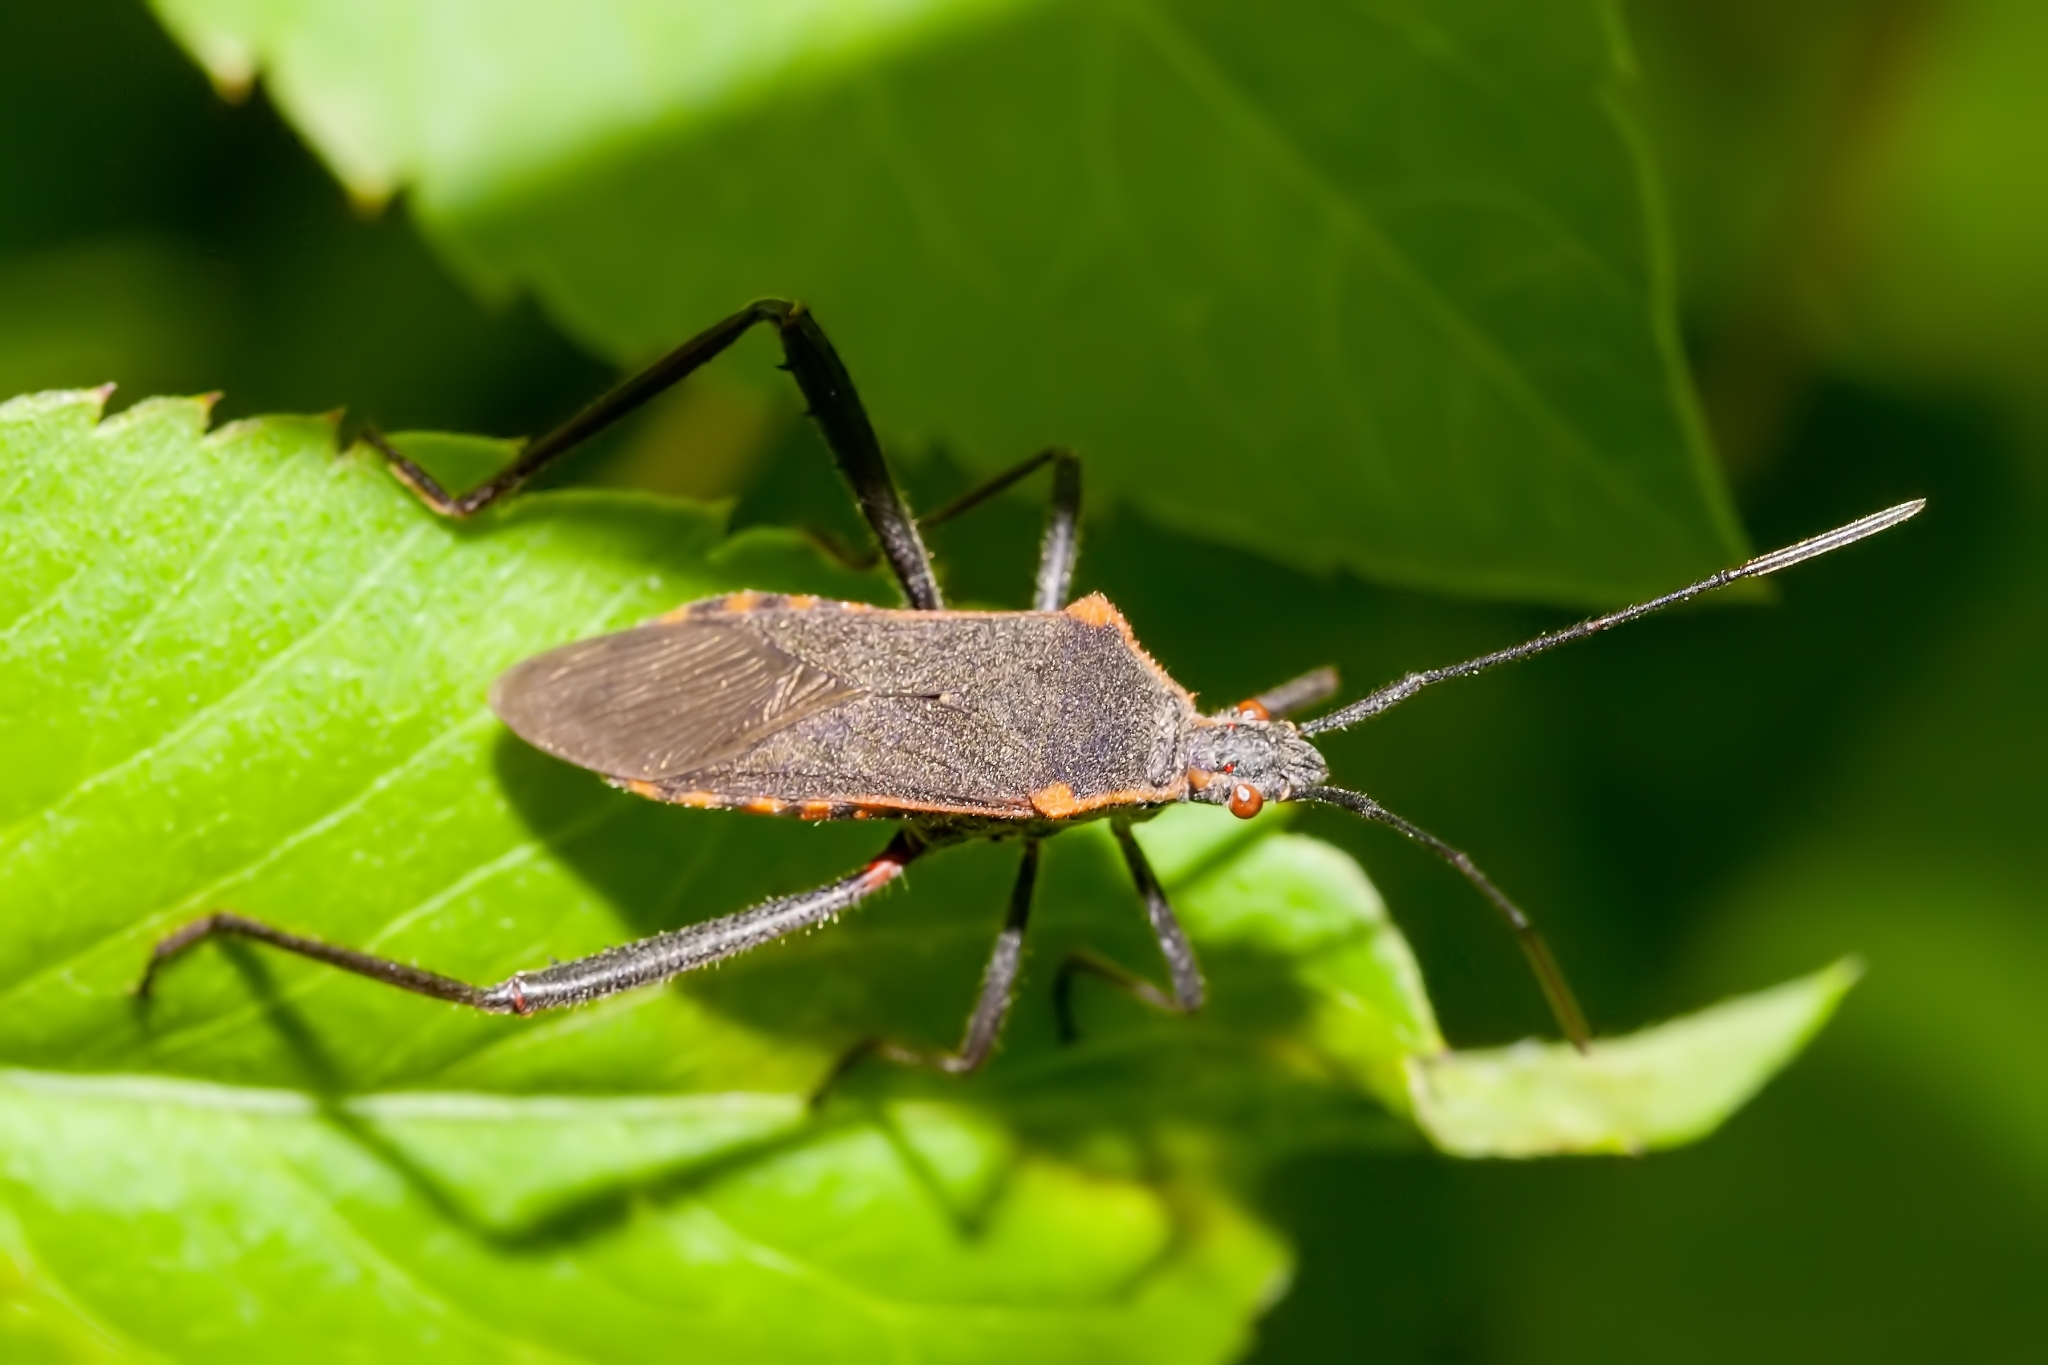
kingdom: Animalia
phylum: Arthropoda
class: Insecta
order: Hemiptera
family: Coreidae
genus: Phthiacnemia
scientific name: Phthiacnemia picta
